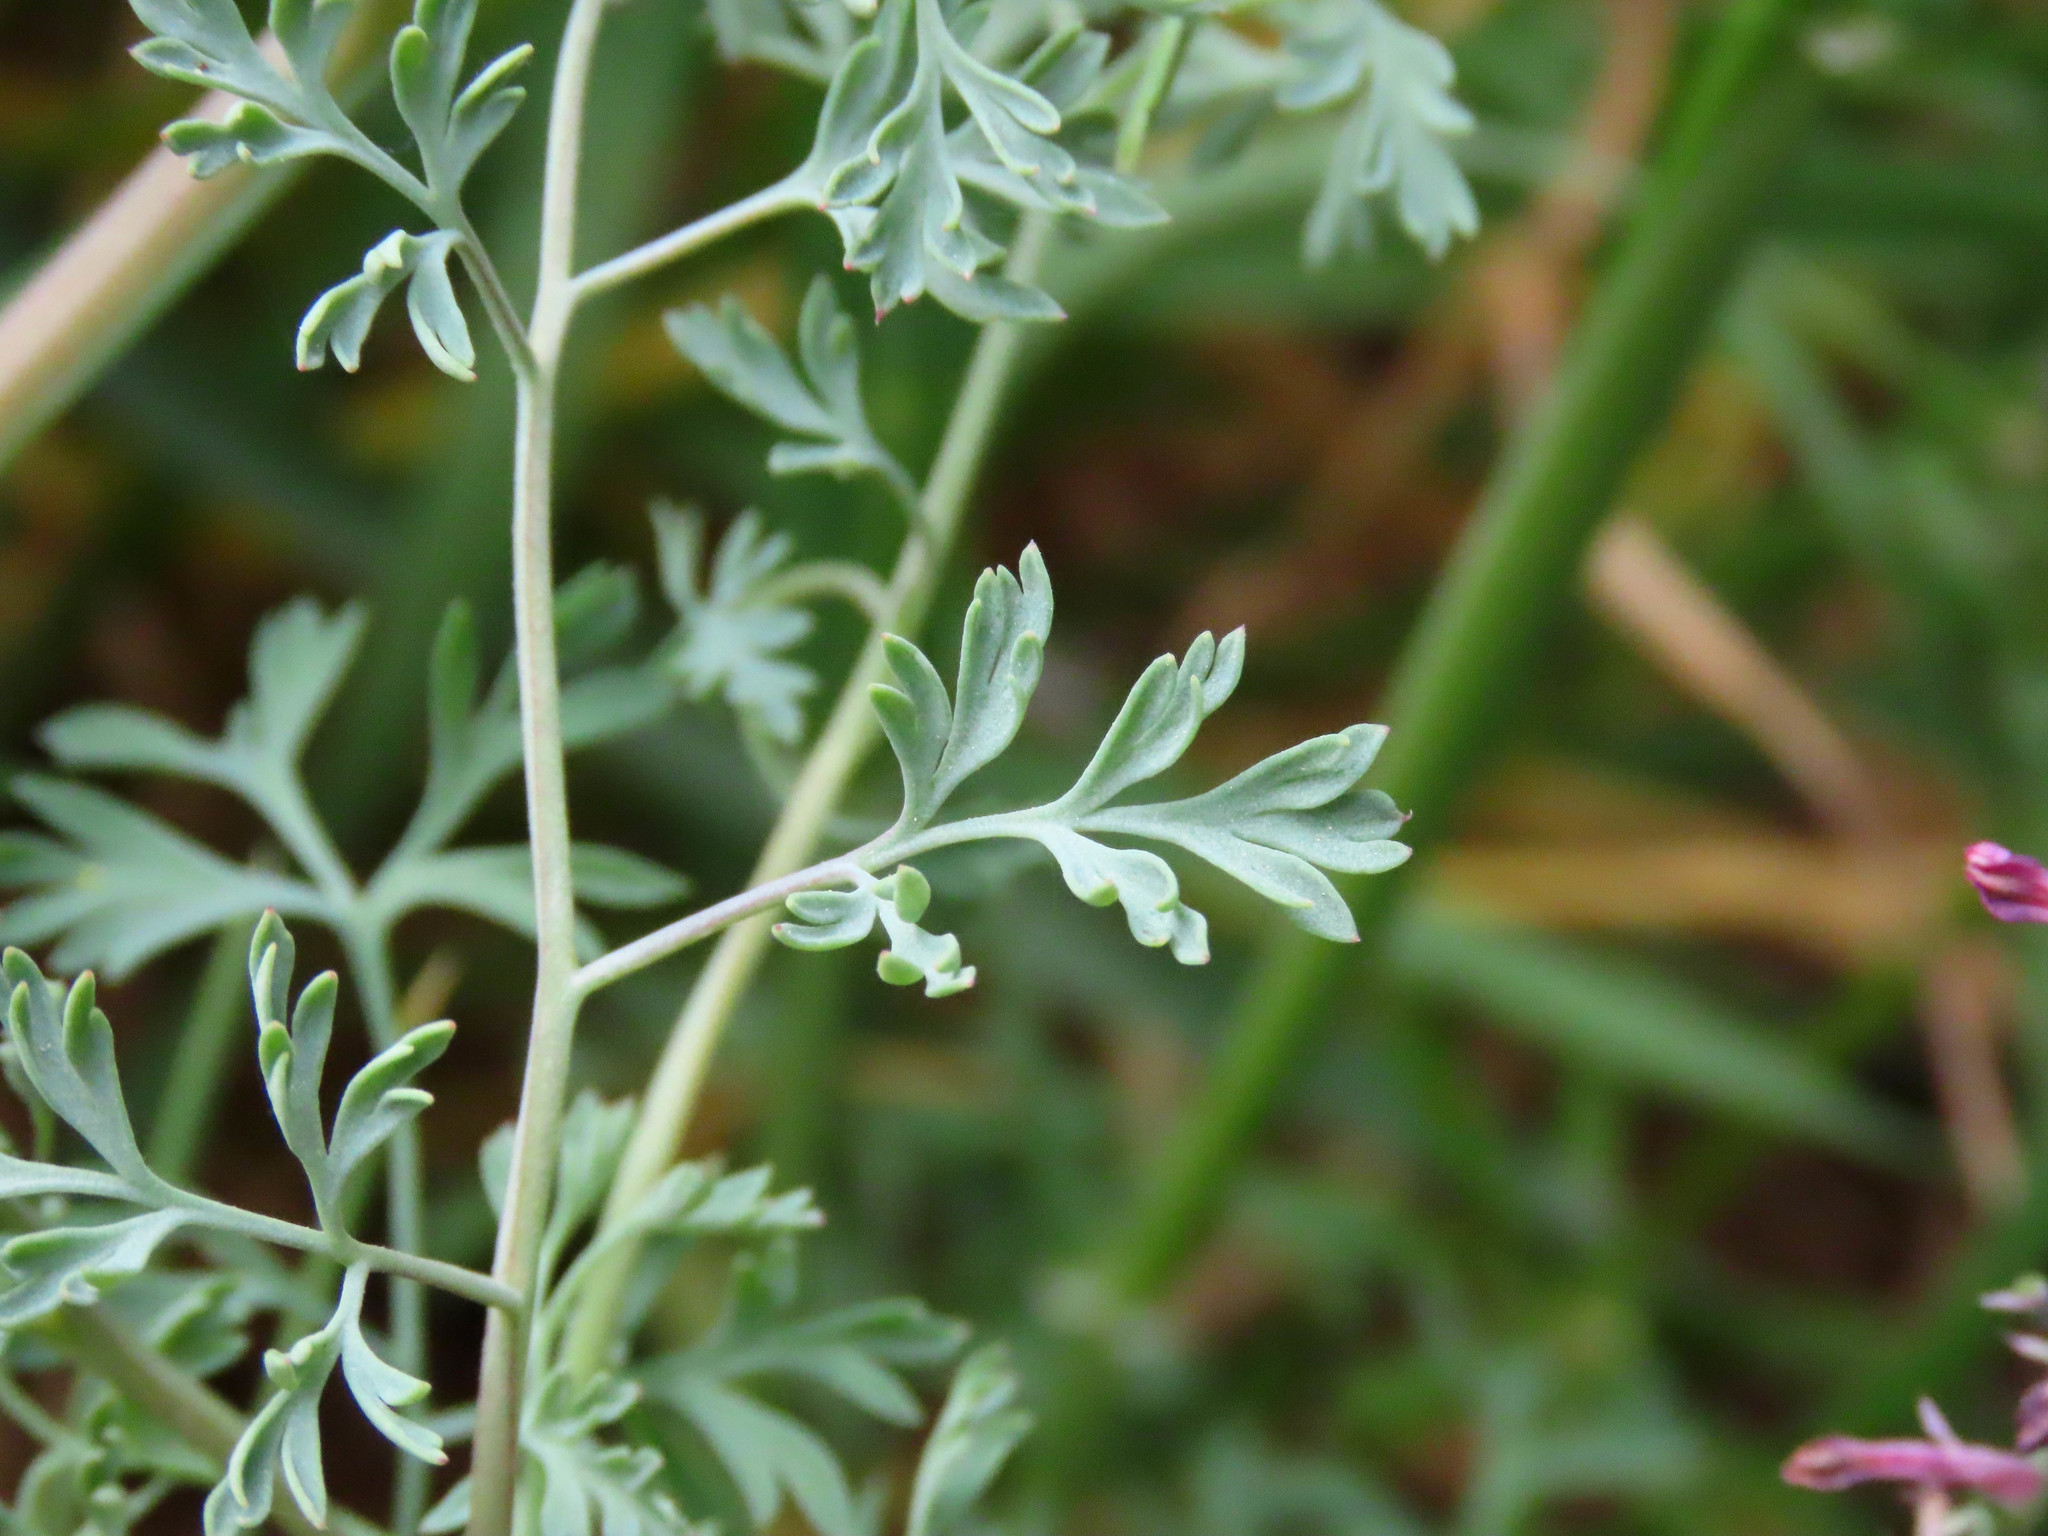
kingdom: Plantae
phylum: Tracheophyta
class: Magnoliopsida
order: Ranunculales
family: Papaveraceae
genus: Fumaria
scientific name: Fumaria officinalis
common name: Common fumitory
